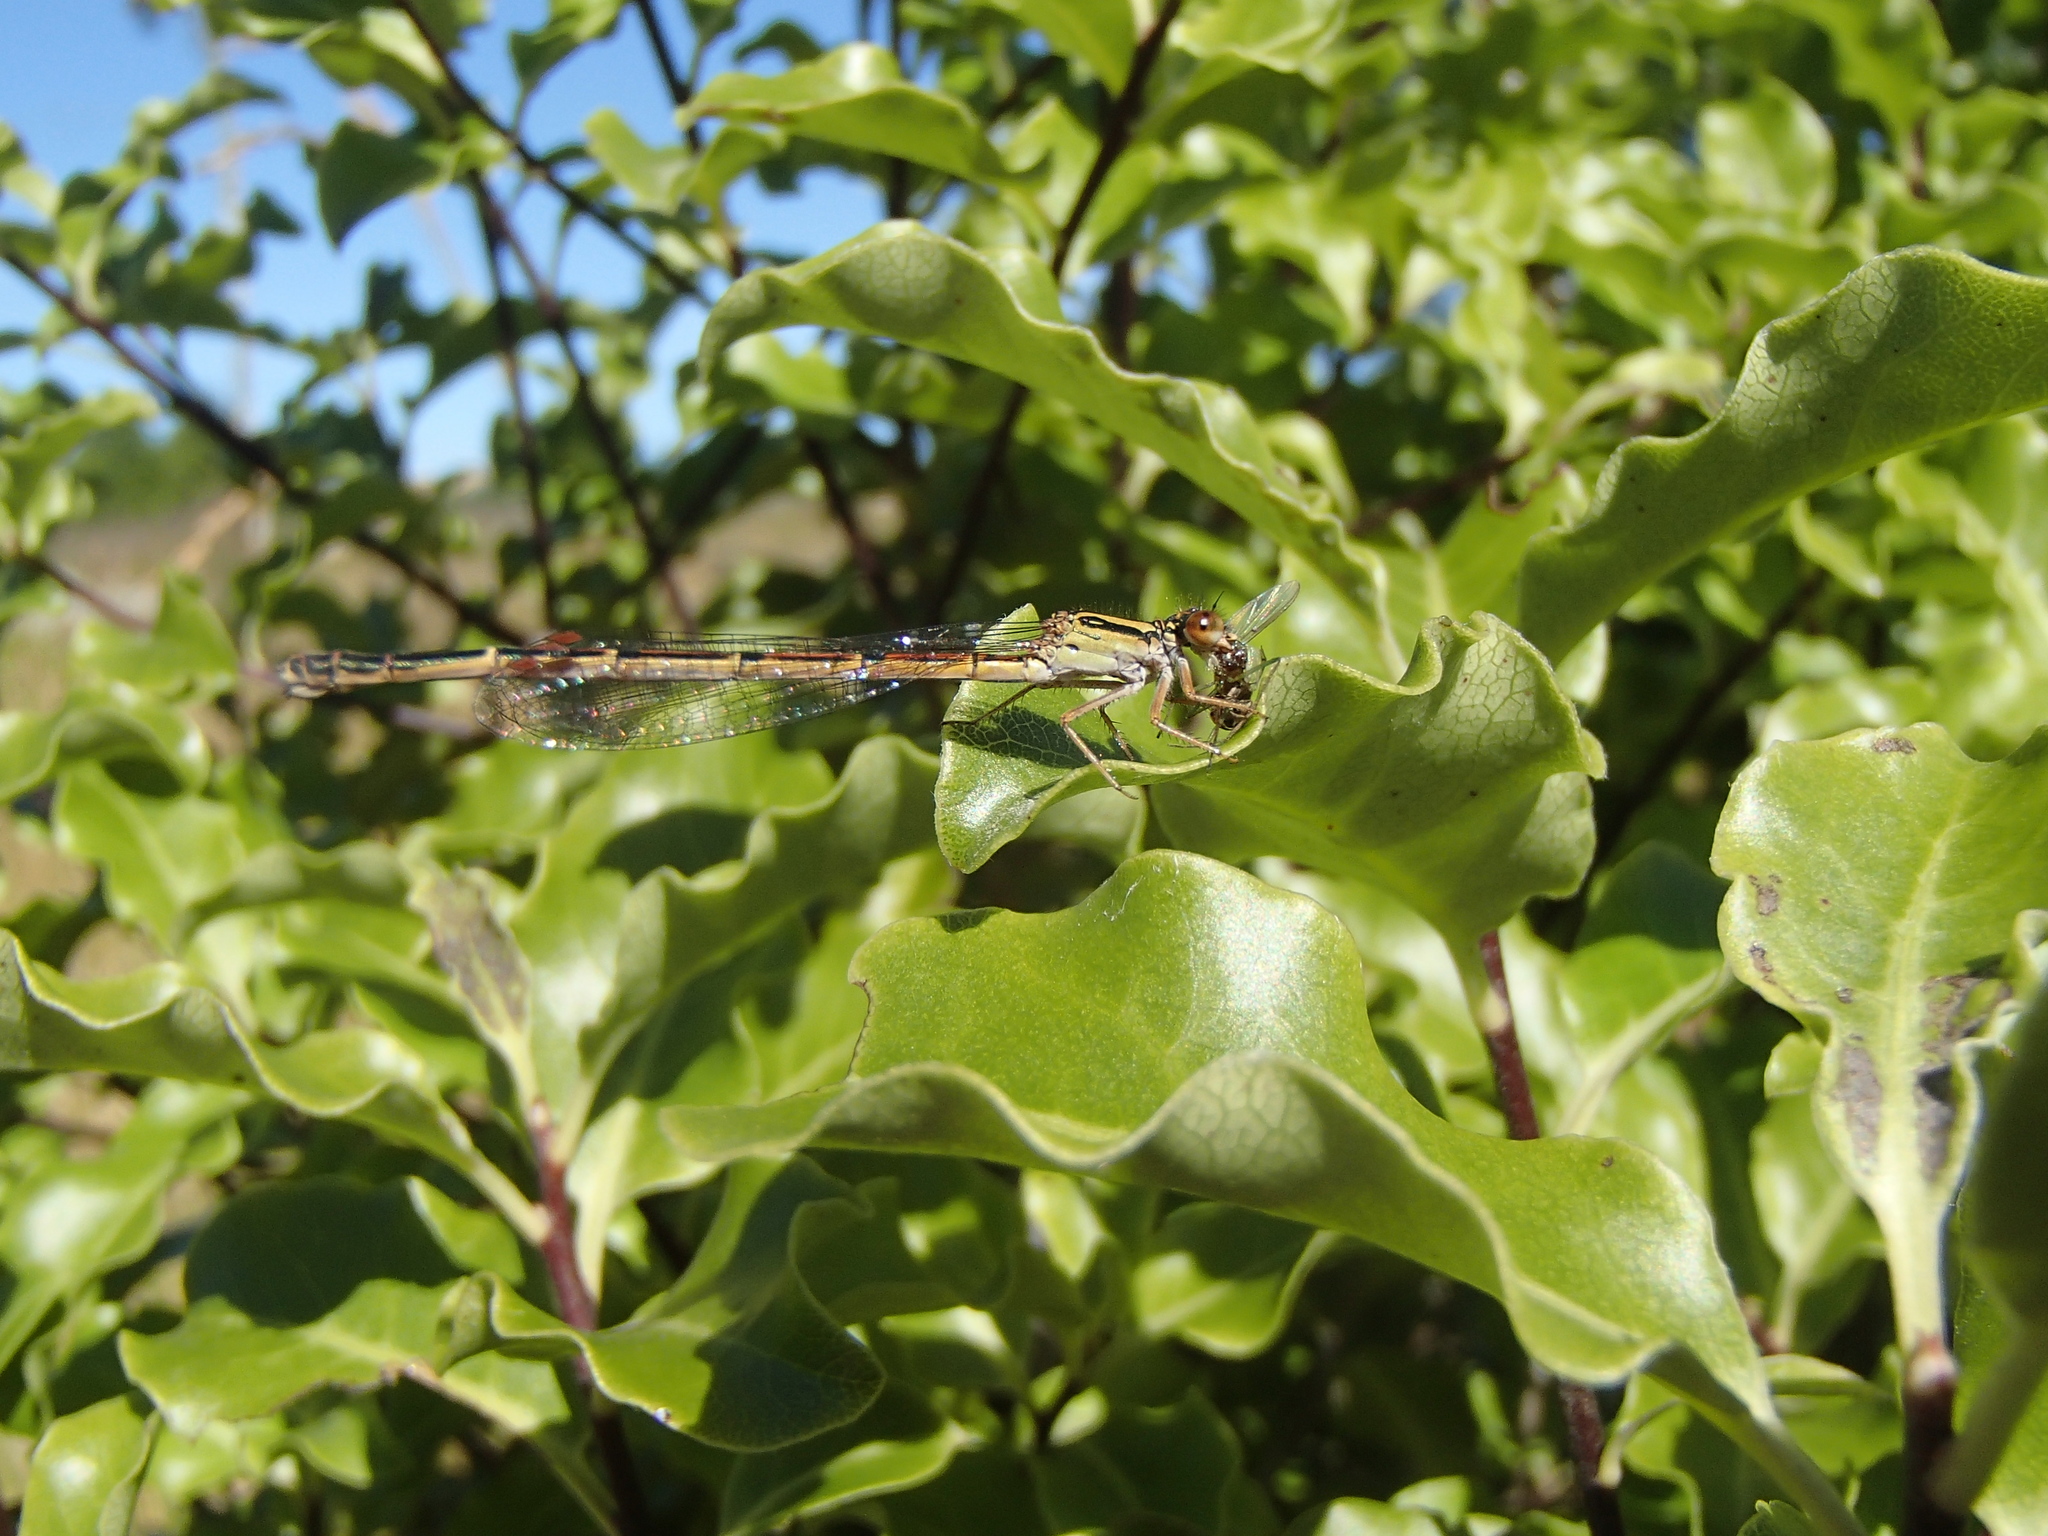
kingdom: Animalia
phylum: Arthropoda
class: Insecta
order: Odonata
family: Coenagrionidae
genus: Xanthocnemis
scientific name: Xanthocnemis zealandica
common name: Common redcoat damselfly
